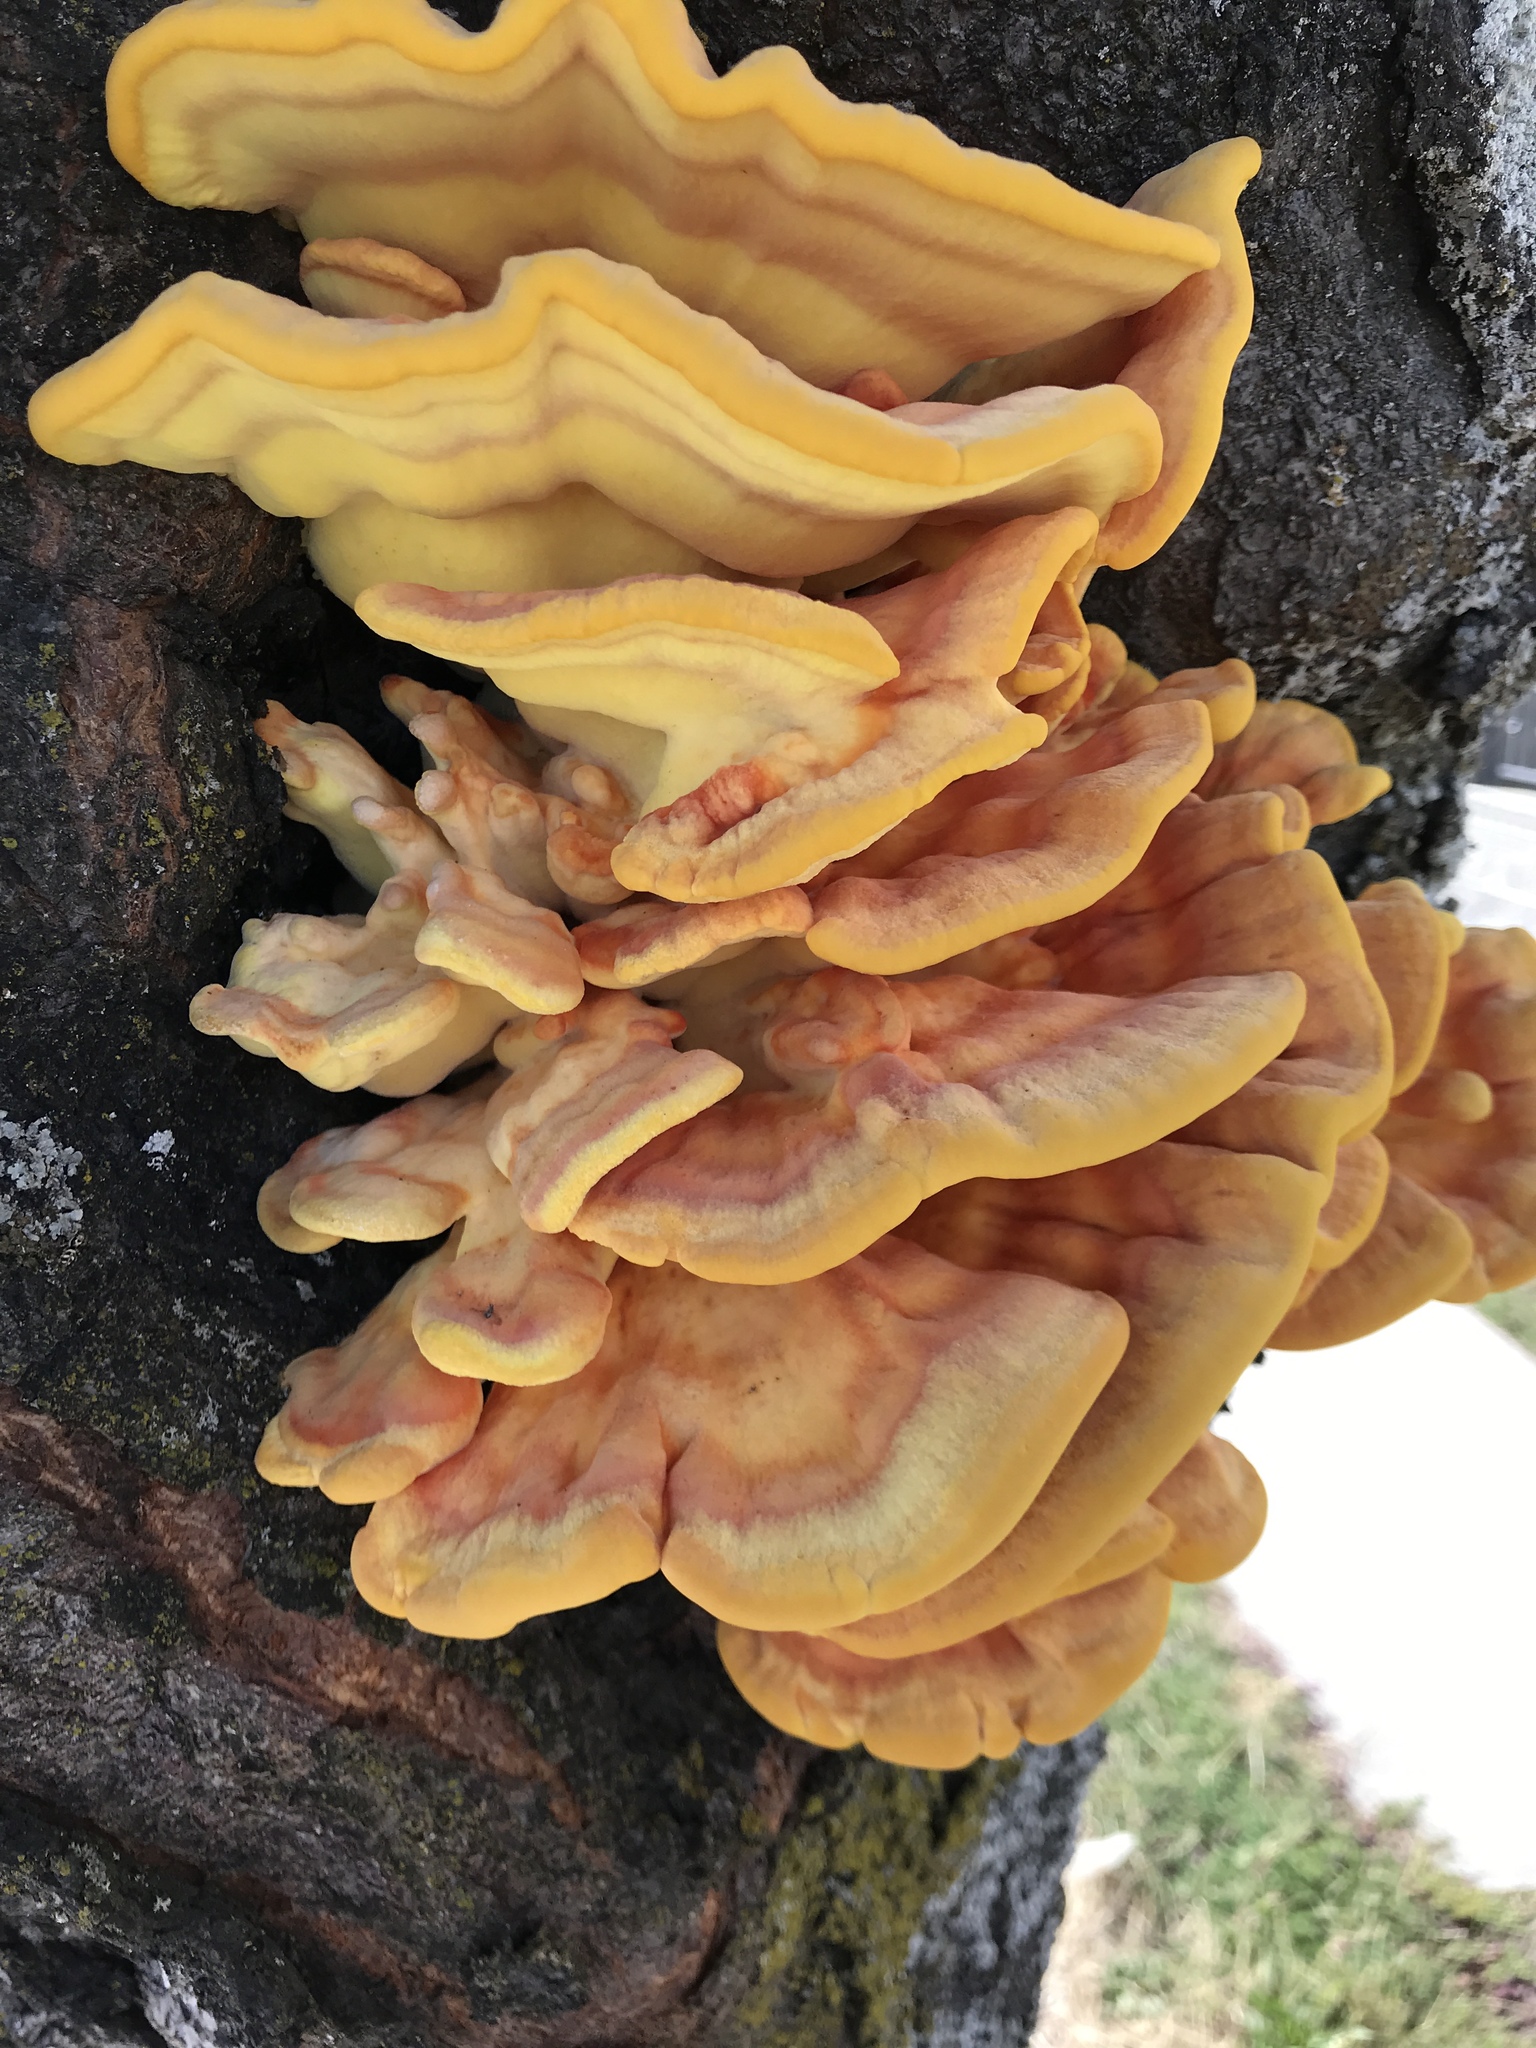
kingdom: Fungi
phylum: Basidiomycota
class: Agaricomycetes
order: Polyporales
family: Laetiporaceae
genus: Laetiporus
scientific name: Laetiporus gilbertsonii
